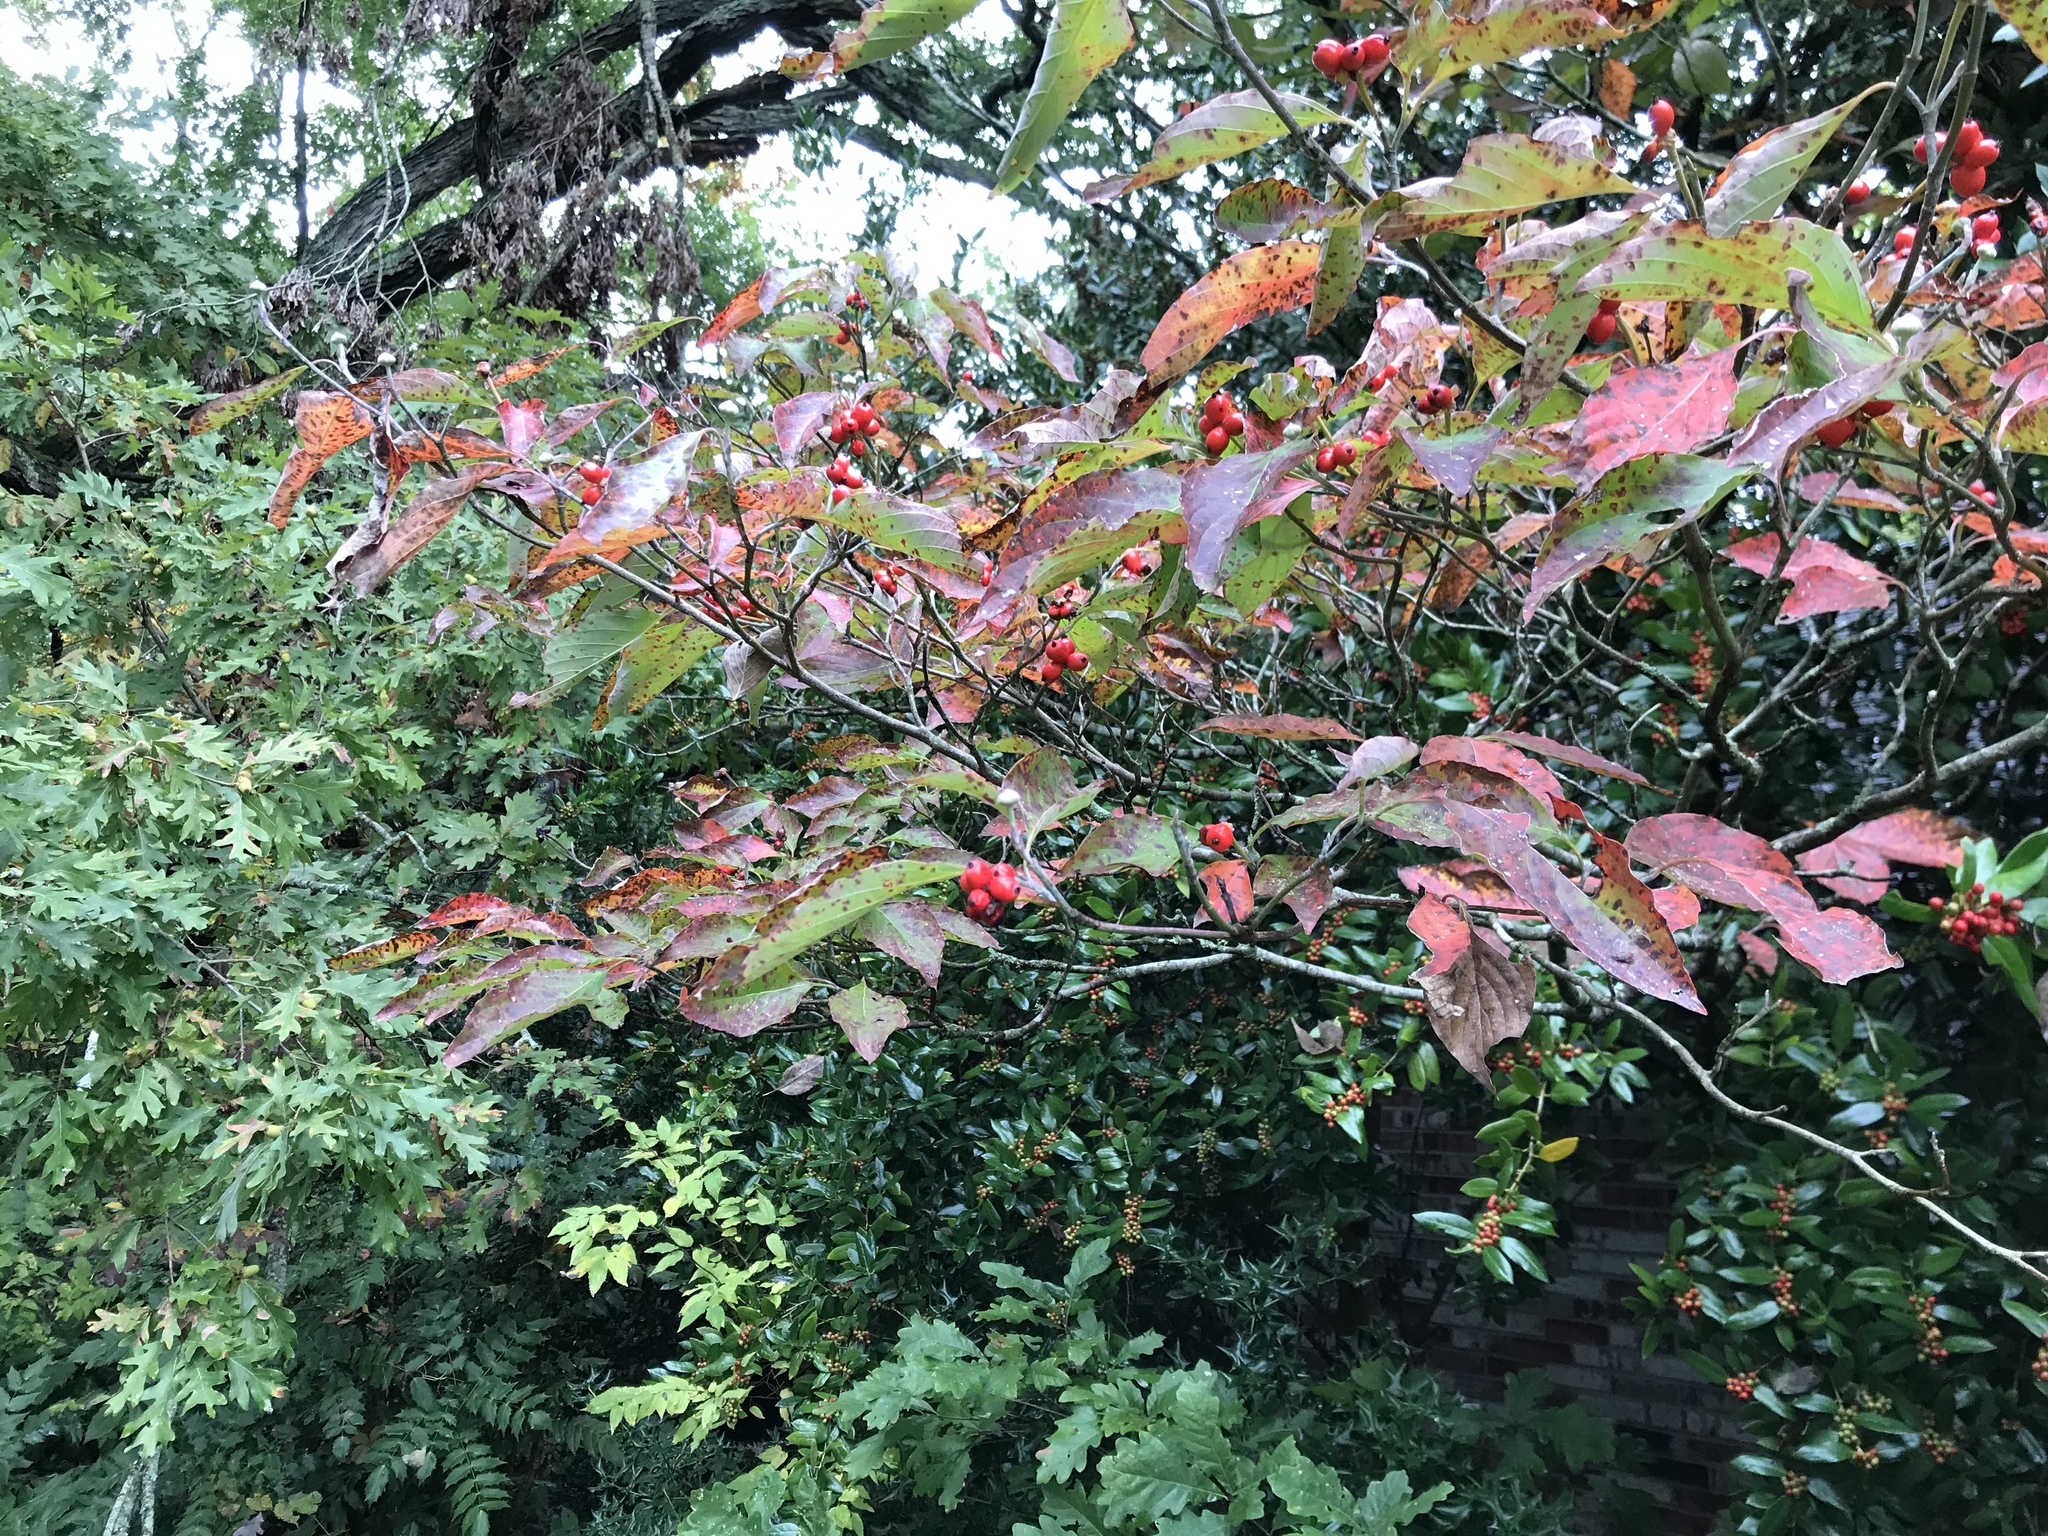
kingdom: Plantae
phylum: Tracheophyta
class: Magnoliopsida
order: Cornales
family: Cornaceae
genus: Cornus
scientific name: Cornus florida
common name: Flowering dogwood
